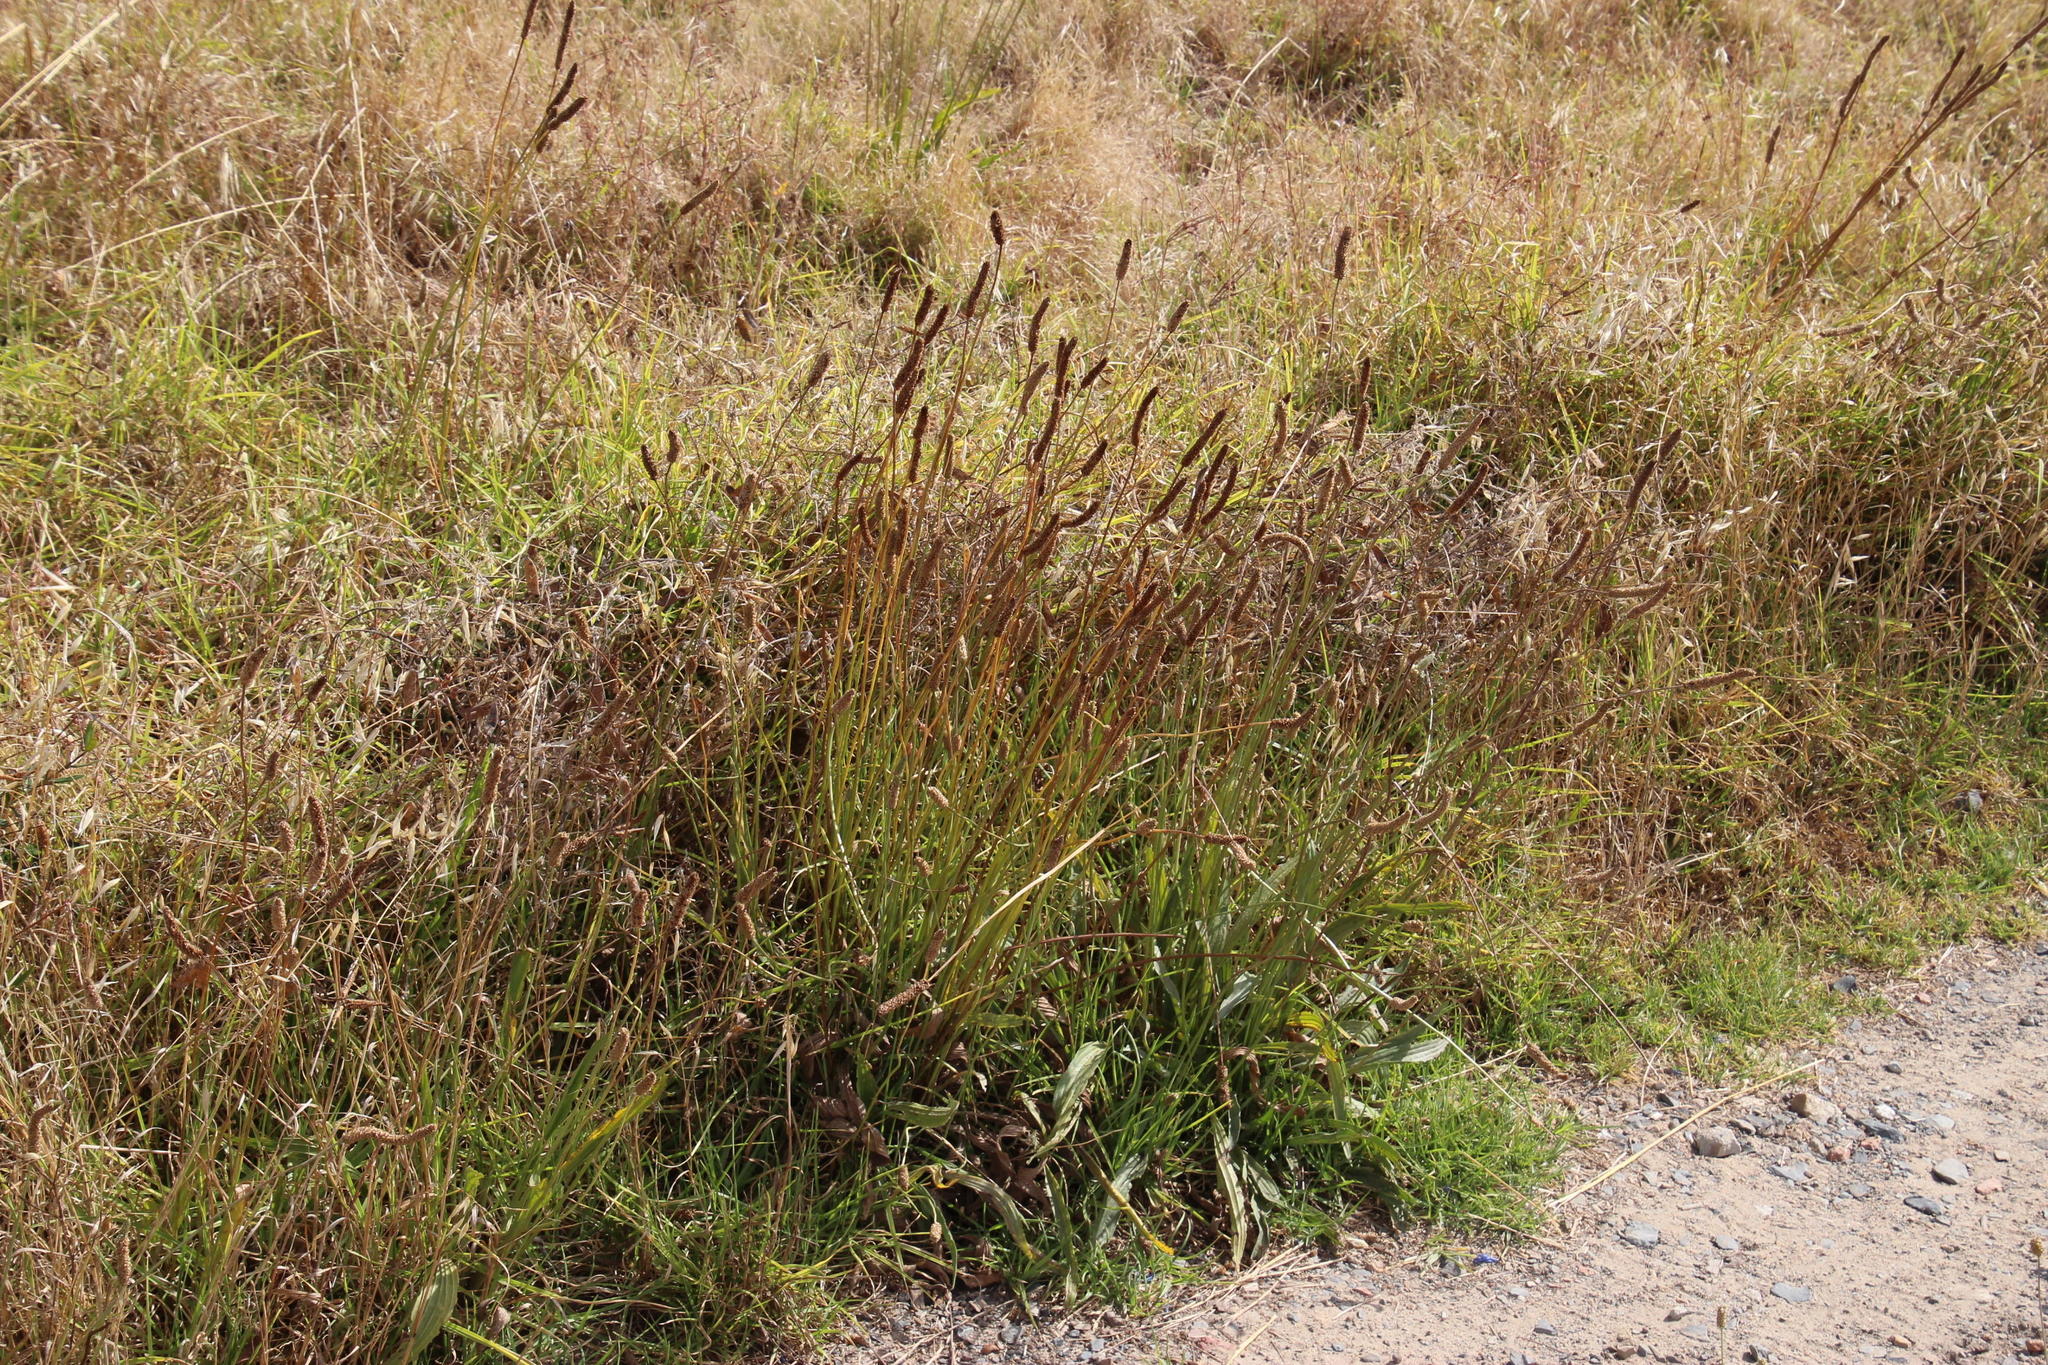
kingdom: Plantae
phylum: Tracheophyta
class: Magnoliopsida
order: Lamiales
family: Plantaginaceae
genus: Plantago
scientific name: Plantago lanceolata
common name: Ribwort plantain
